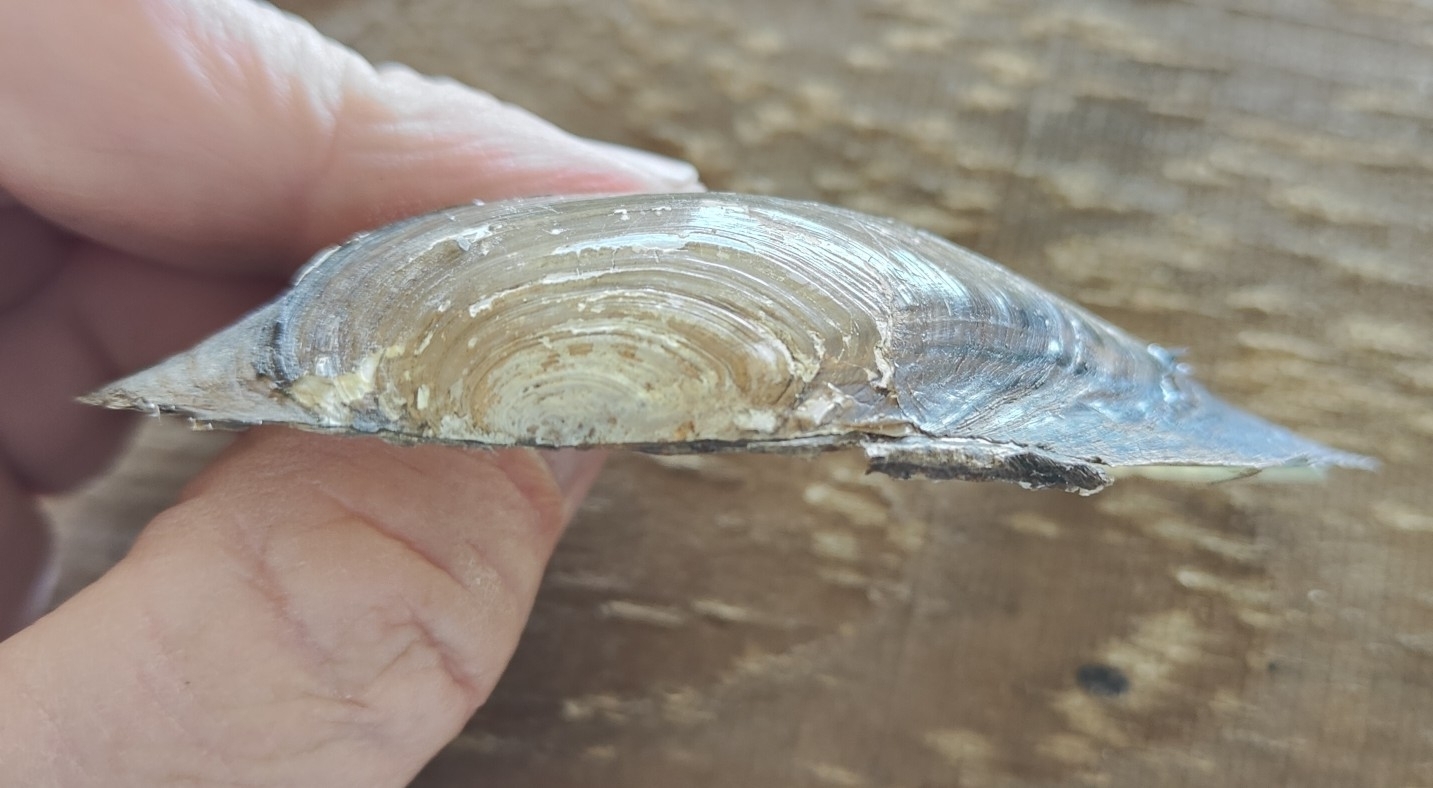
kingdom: Animalia
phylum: Mollusca
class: Bivalvia
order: Unionida
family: Unionidae
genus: Utterbackia
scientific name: Utterbackia imbecillis
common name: Paper pondshell
